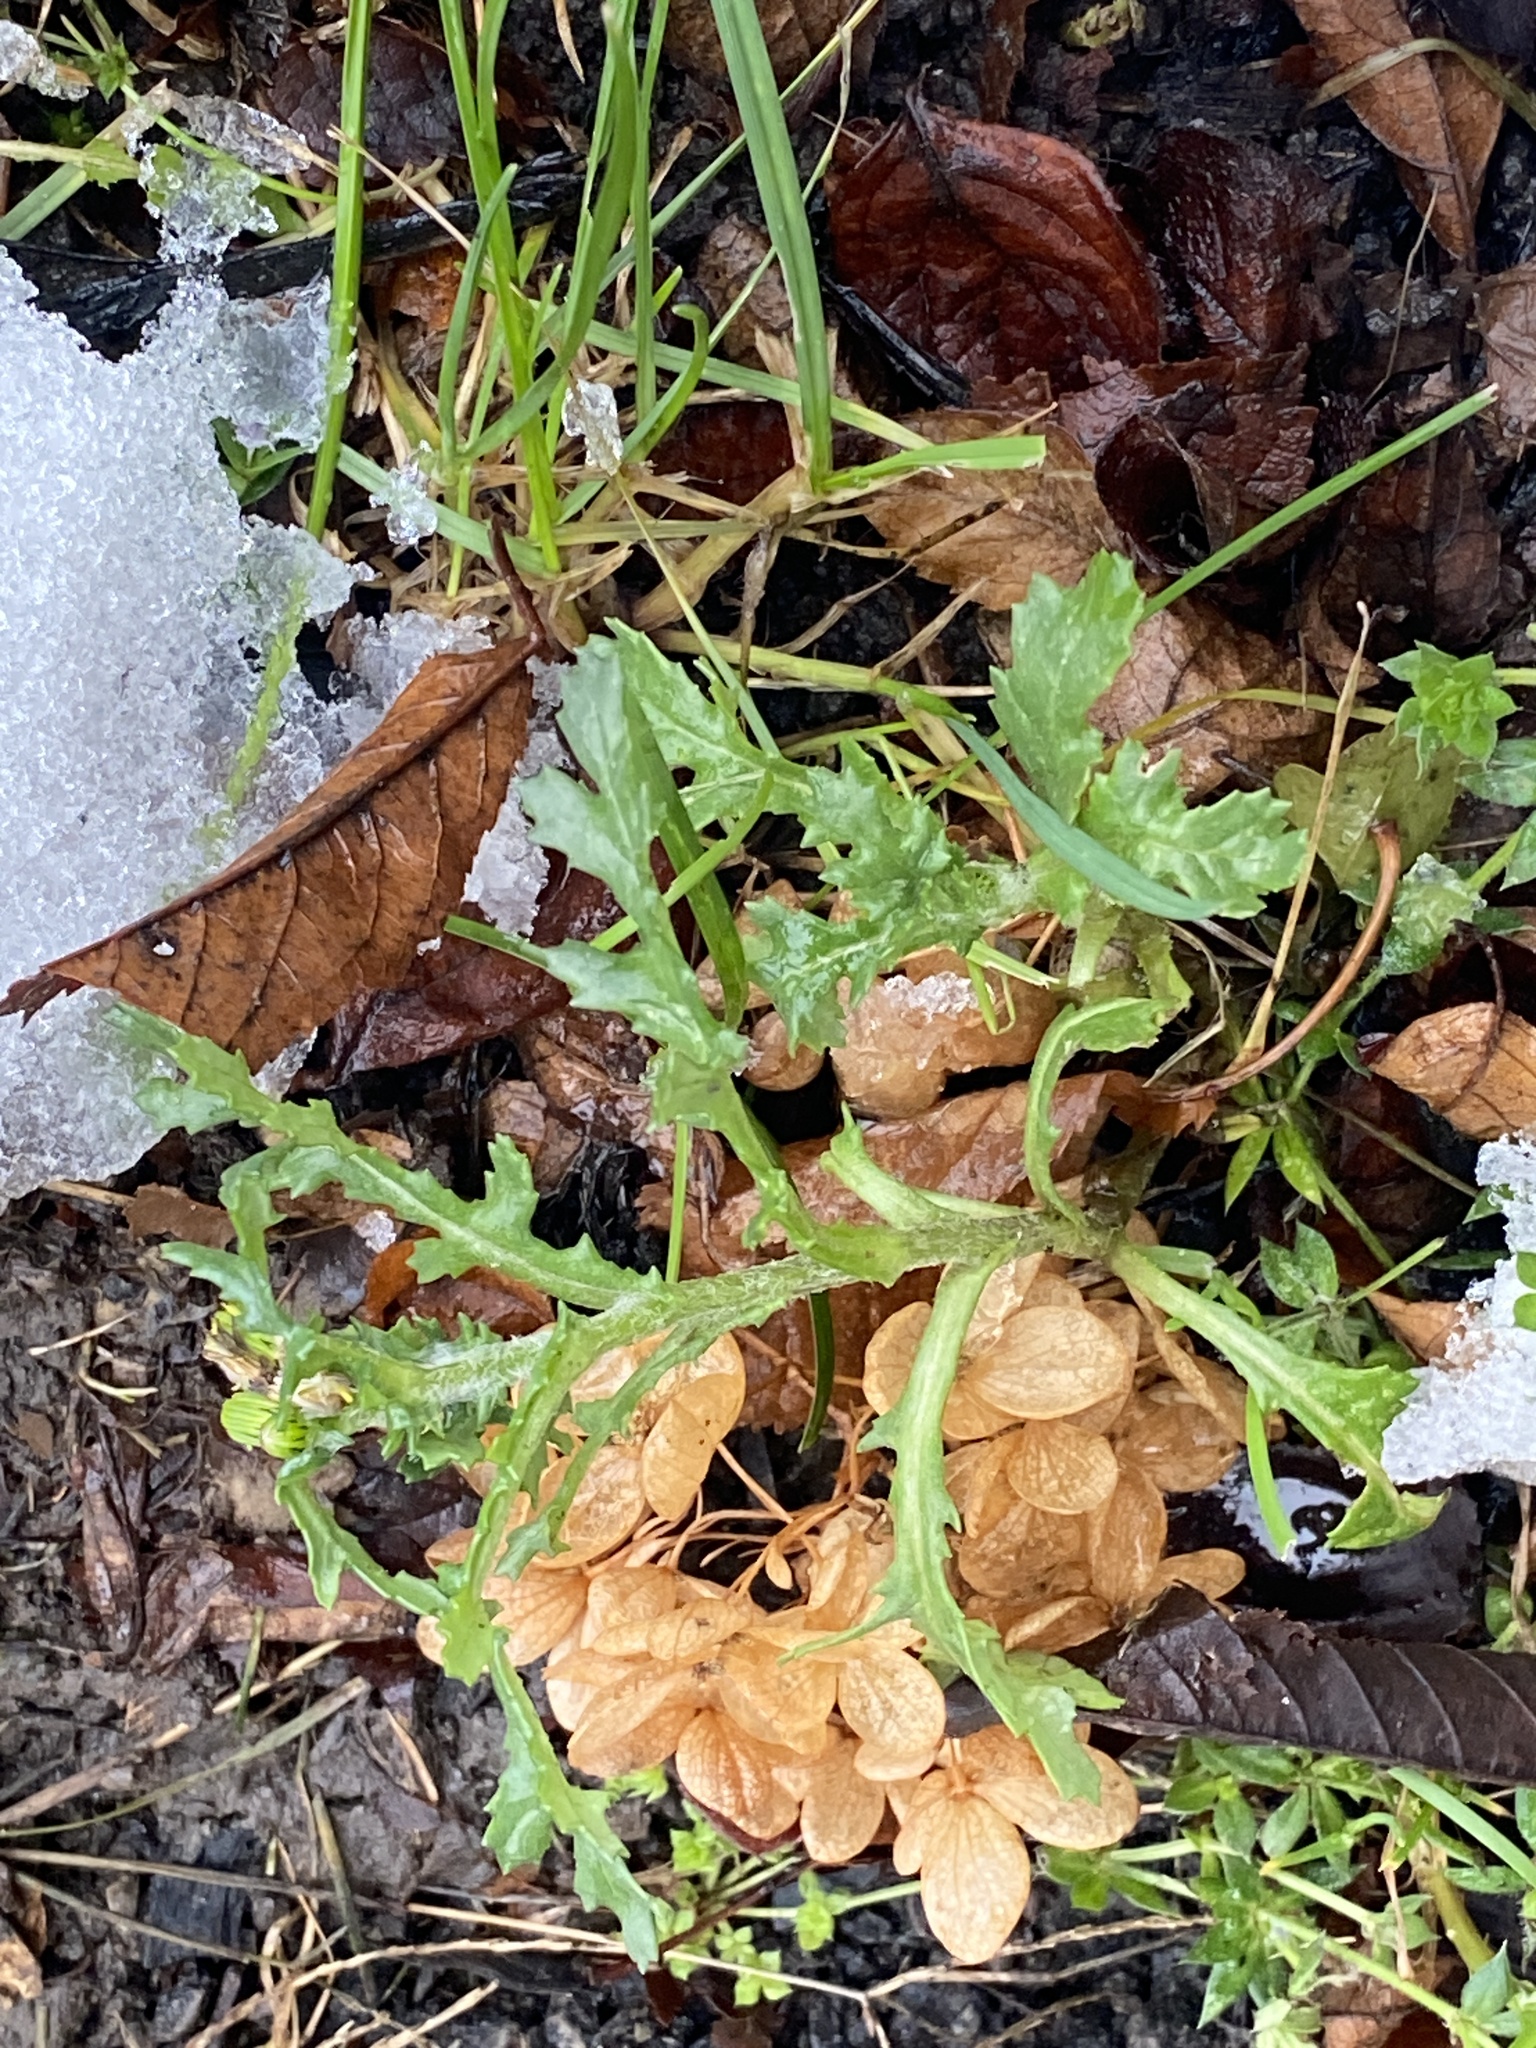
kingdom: Plantae
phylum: Tracheophyta
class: Magnoliopsida
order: Asterales
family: Asteraceae
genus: Senecio
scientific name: Senecio vulgaris
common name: Old-man-in-the-spring
